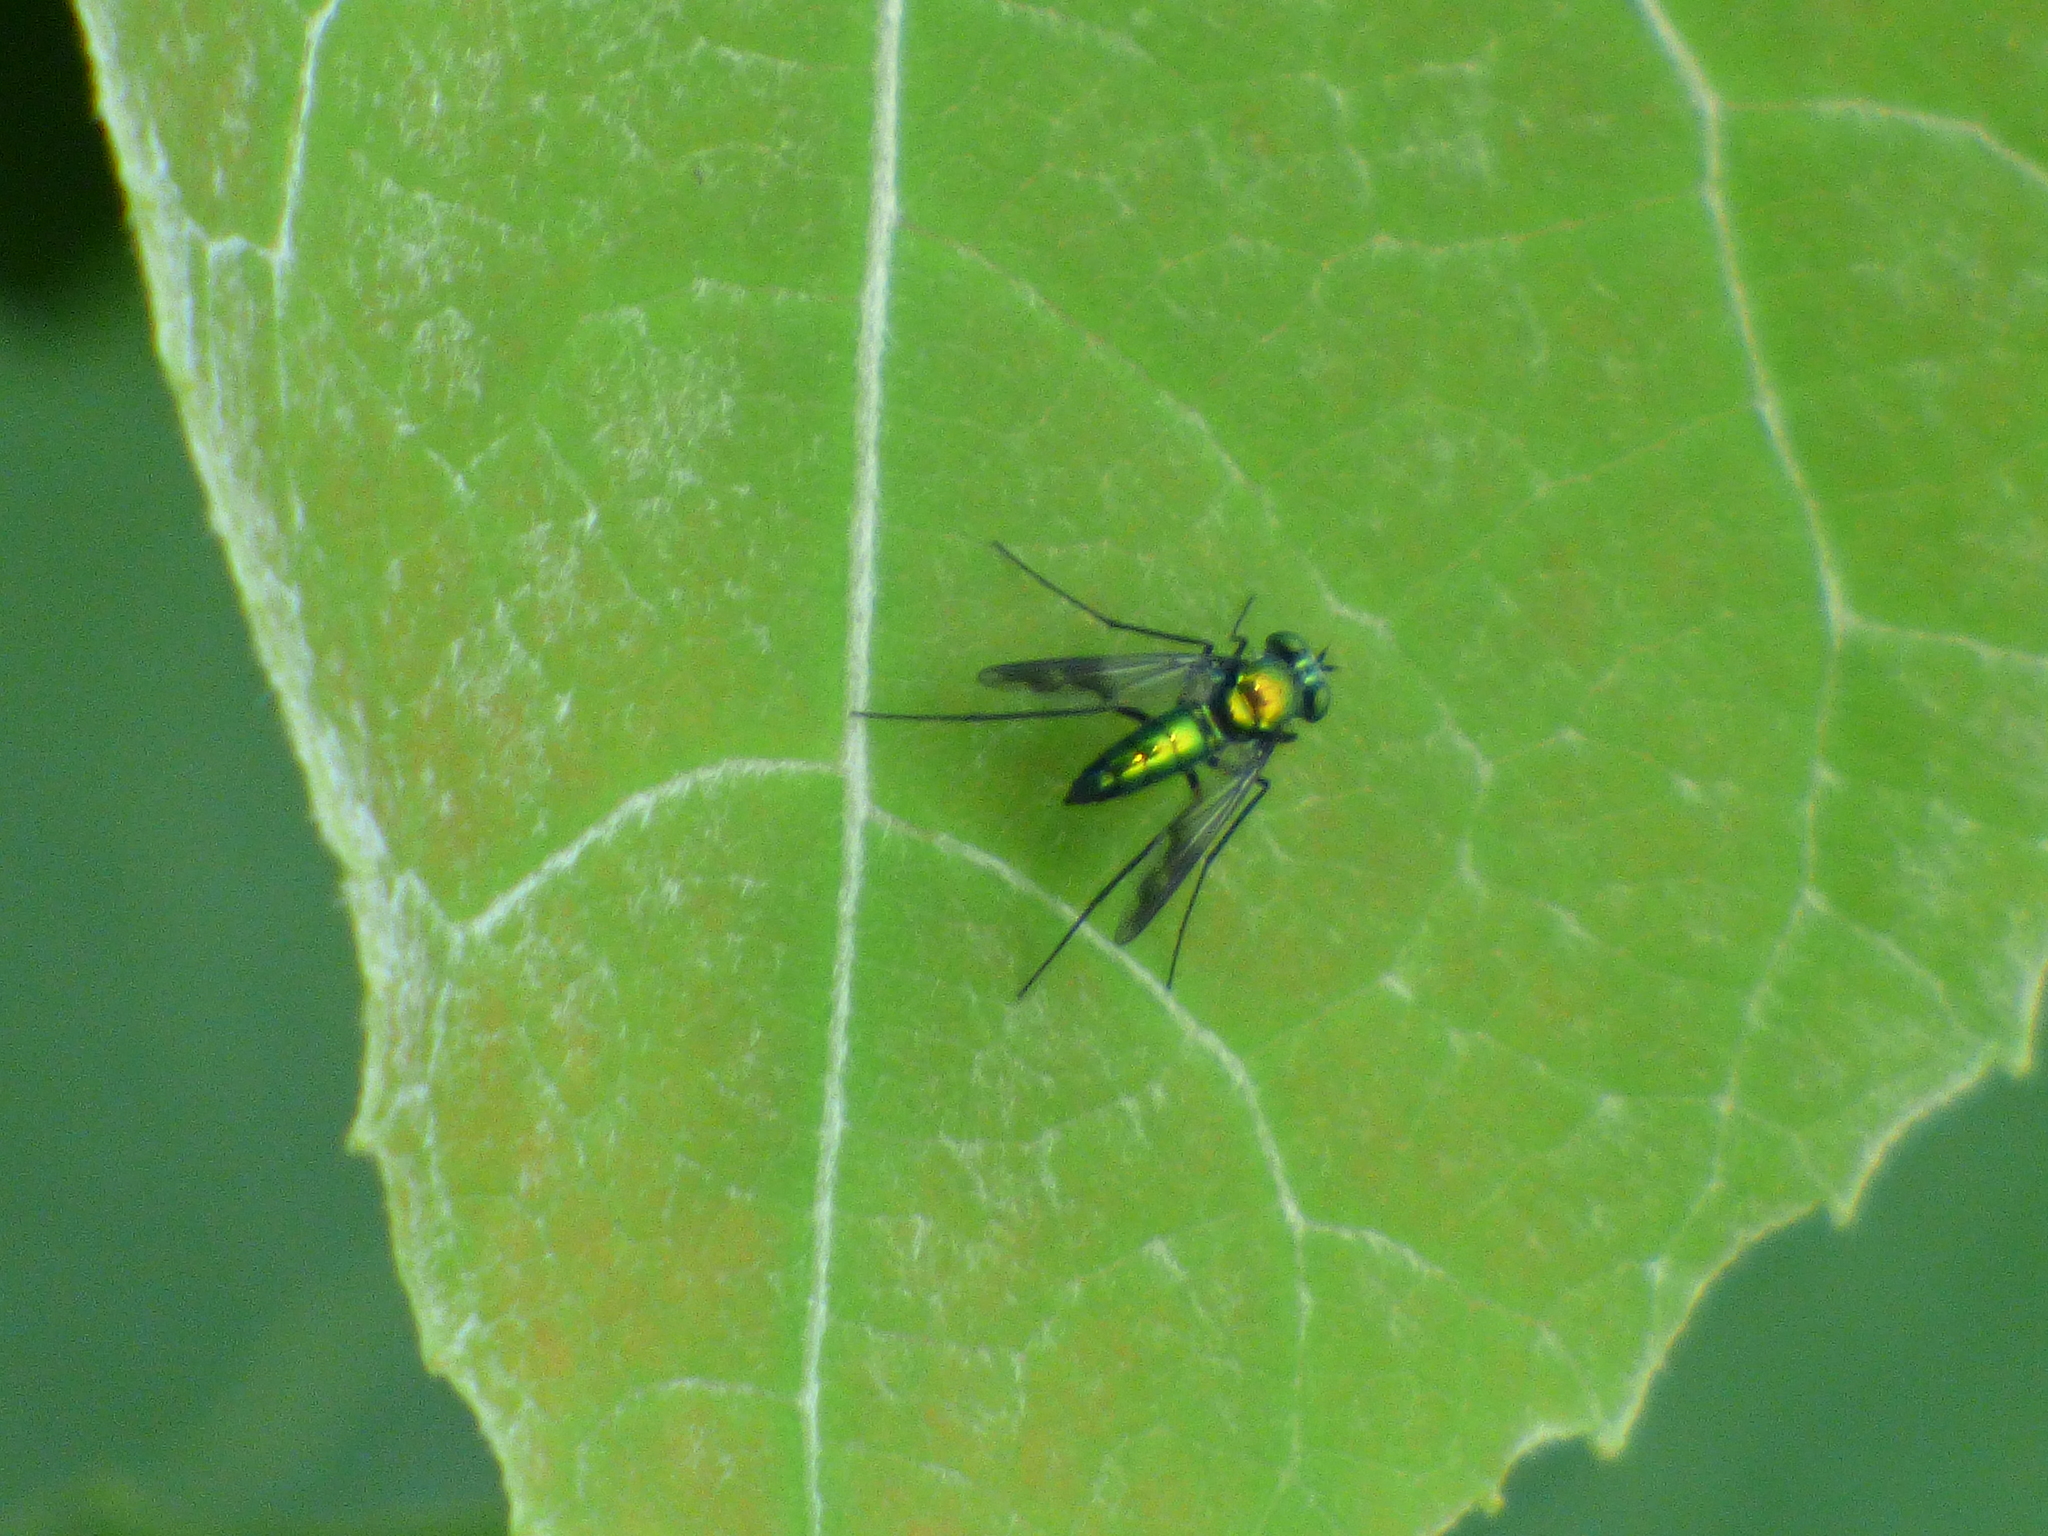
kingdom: Animalia
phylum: Arthropoda
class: Insecta
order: Diptera
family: Dolichopodidae
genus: Condylostylus
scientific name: Condylostylus patibulatus
